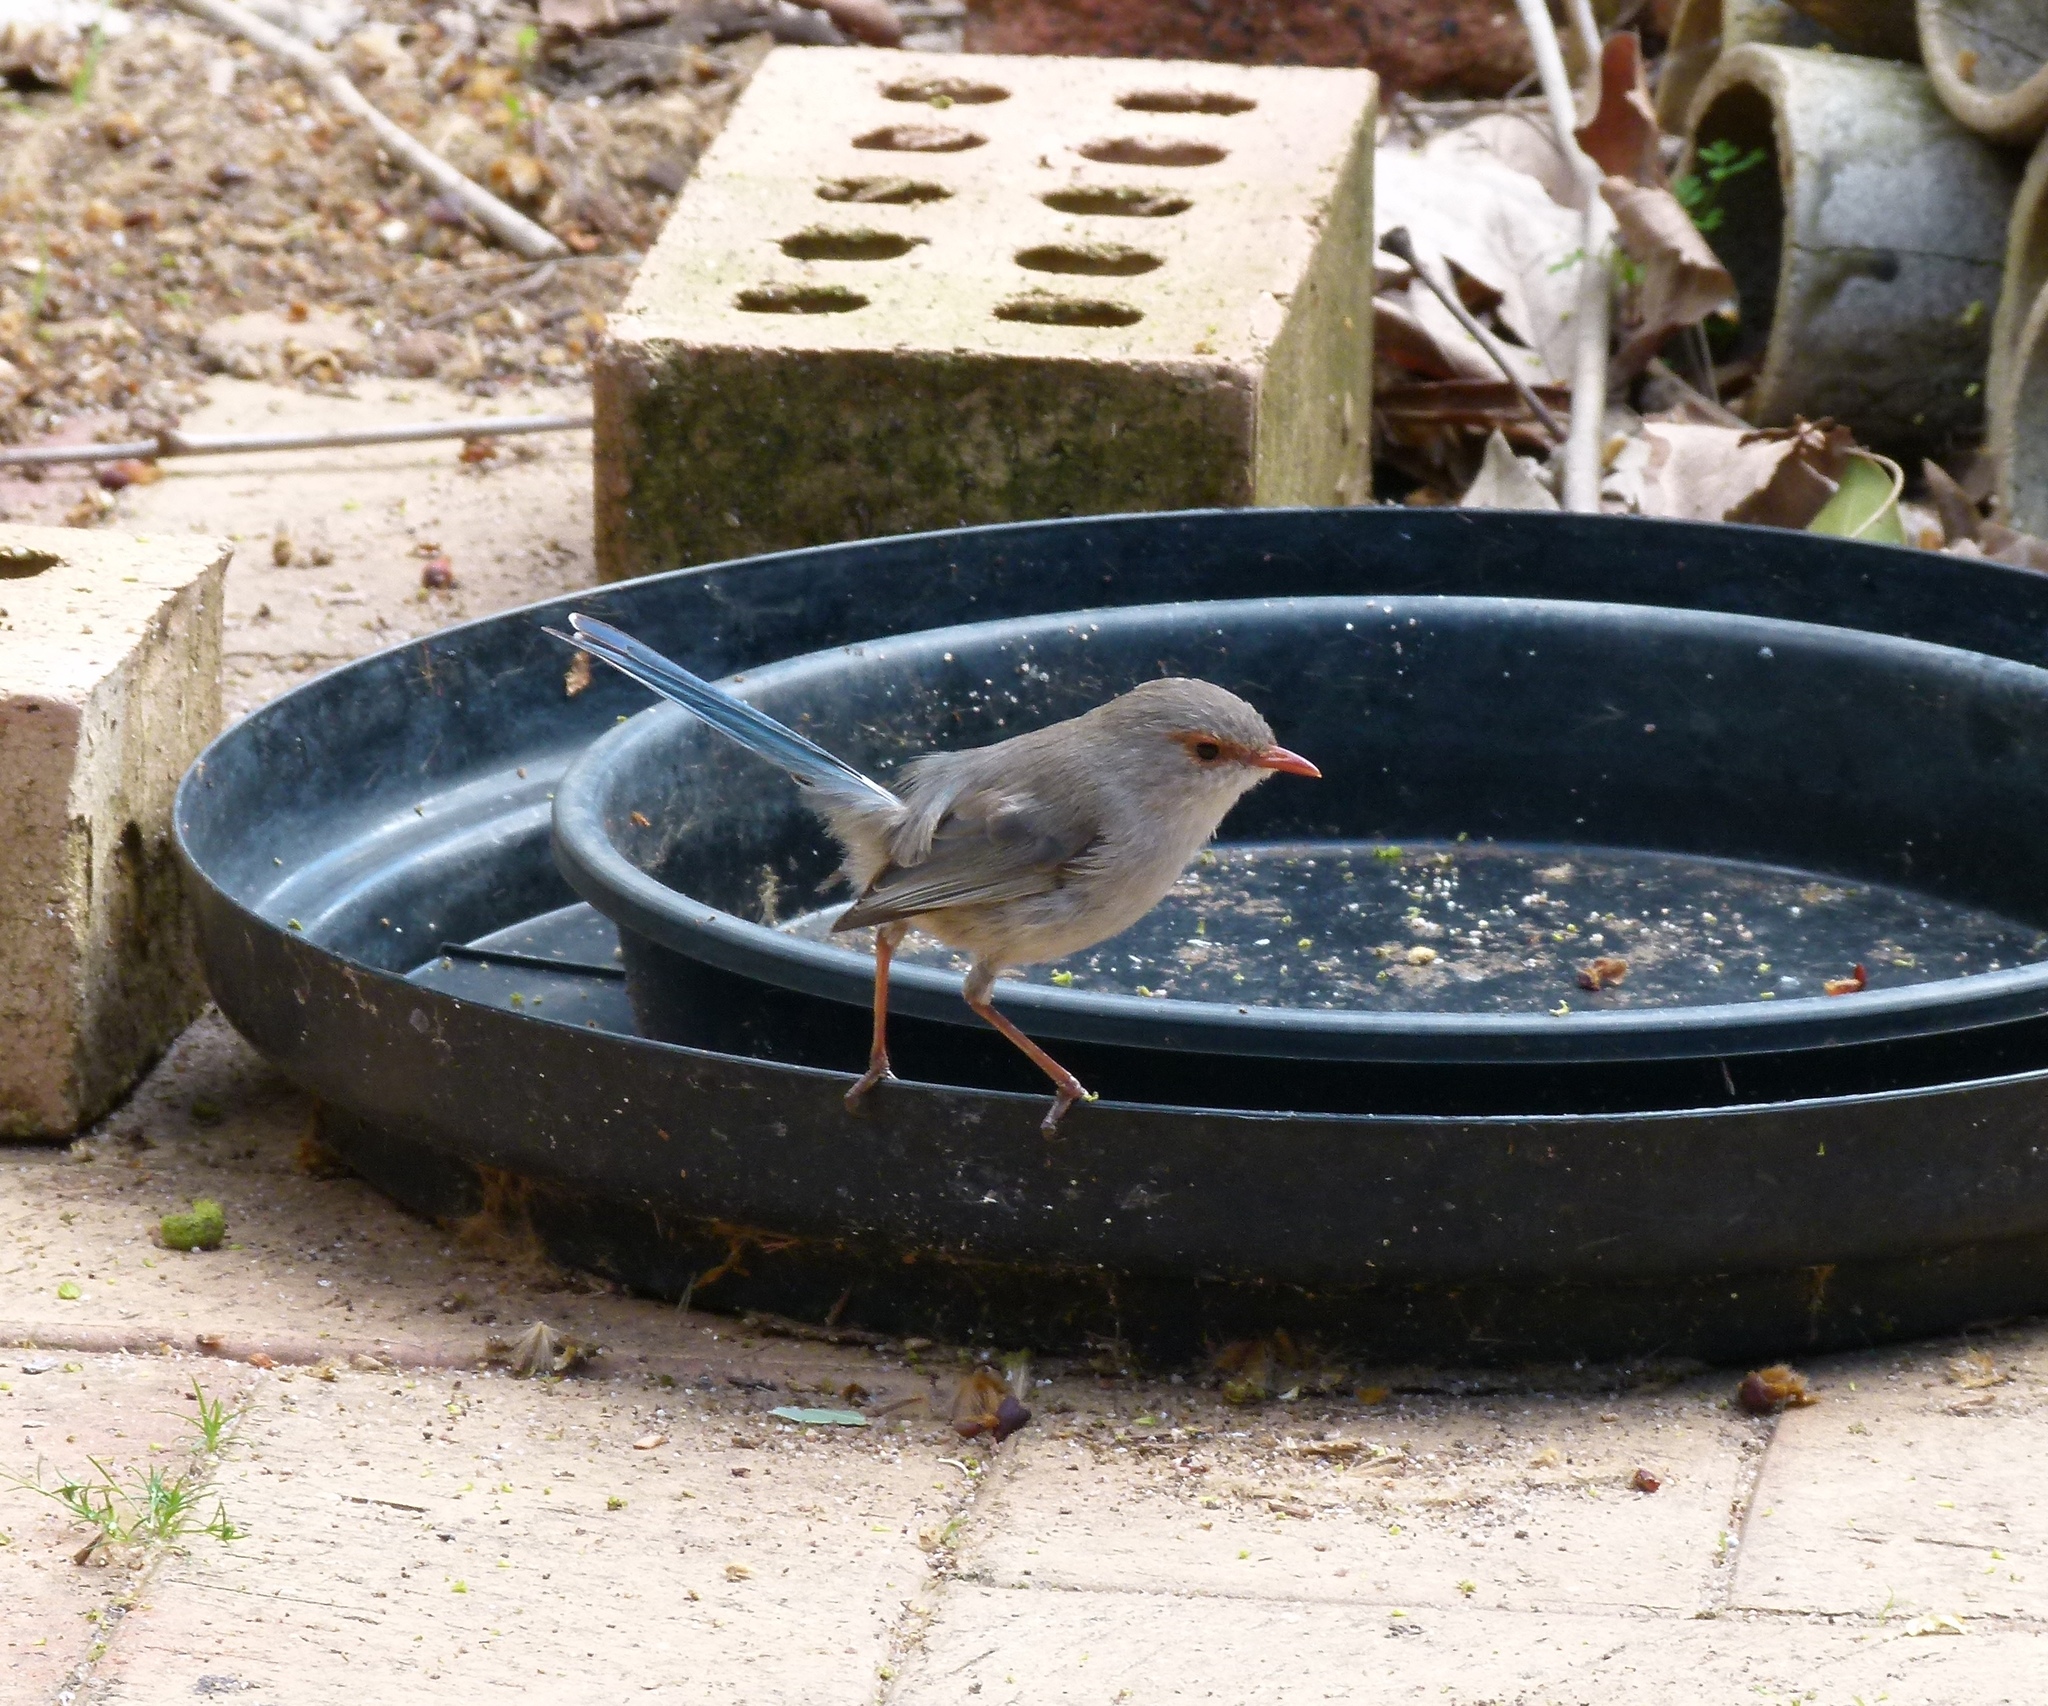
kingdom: Animalia
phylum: Chordata
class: Aves
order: Passeriformes
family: Maluridae
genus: Malurus
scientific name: Malurus splendens
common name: Splendid fairywren
